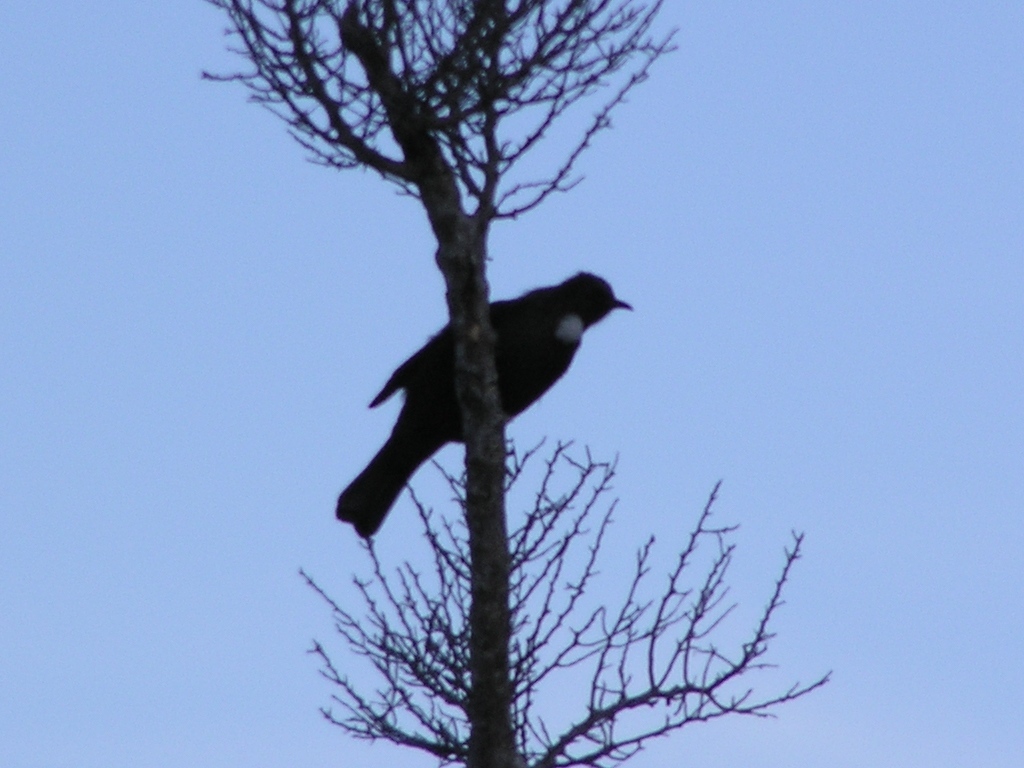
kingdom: Animalia
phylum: Chordata
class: Aves
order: Passeriformes
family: Meliphagidae
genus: Prosthemadera
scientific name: Prosthemadera novaeseelandiae
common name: Tui
